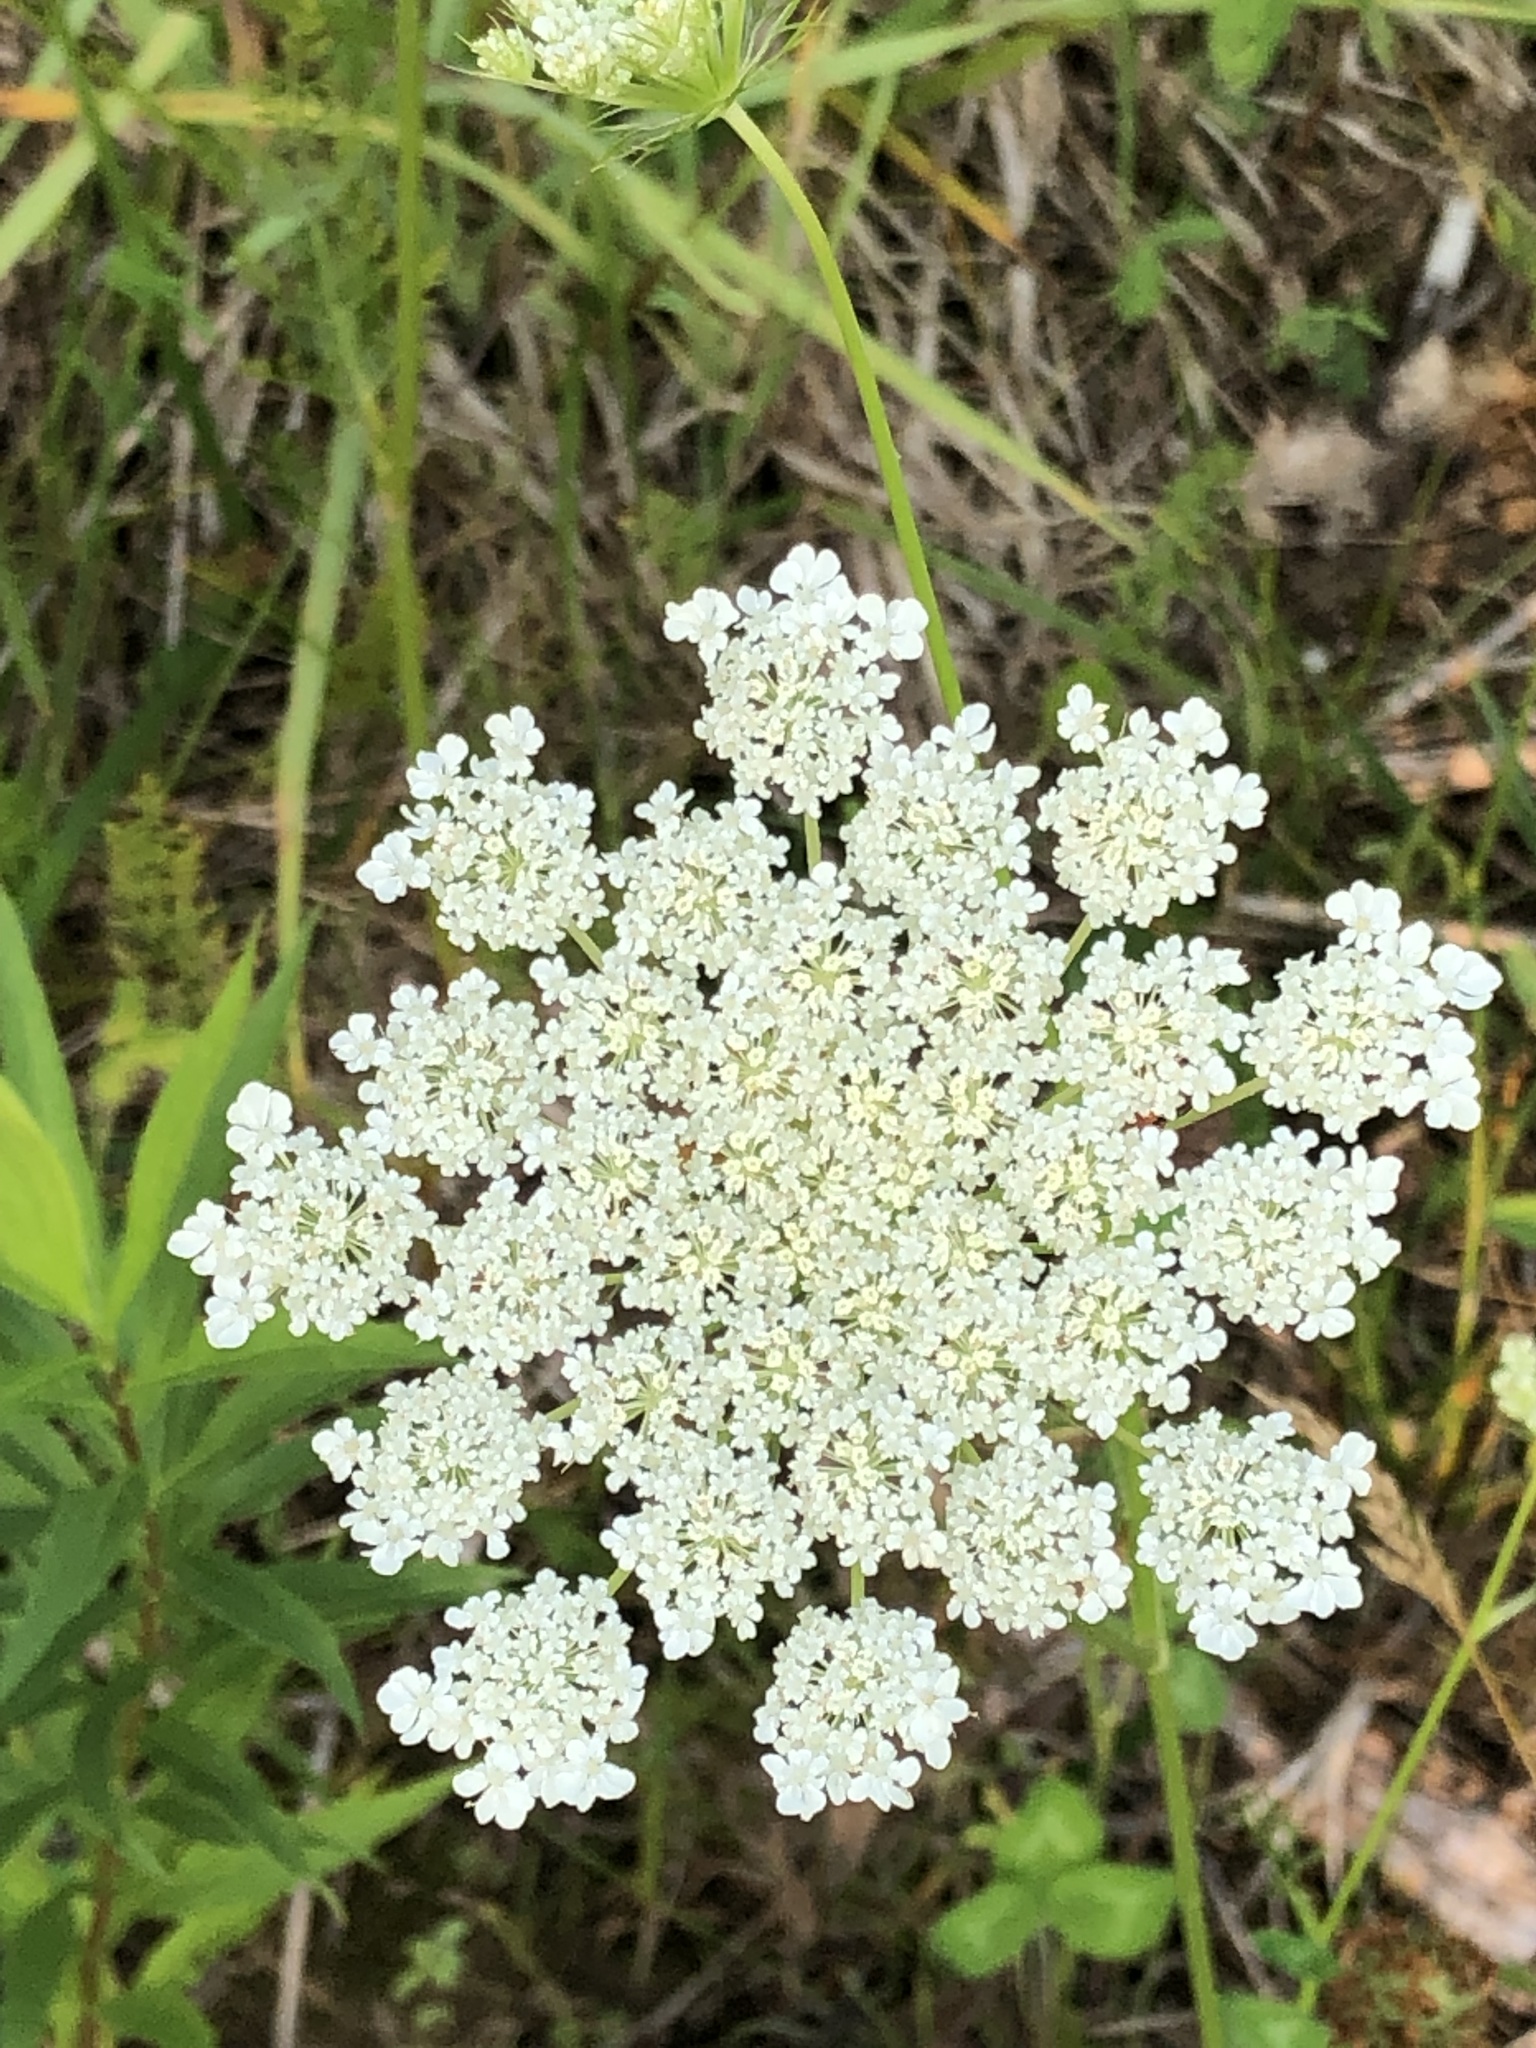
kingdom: Plantae
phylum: Tracheophyta
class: Magnoliopsida
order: Apiales
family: Apiaceae
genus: Daucus
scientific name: Daucus carota
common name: Wild carrot
